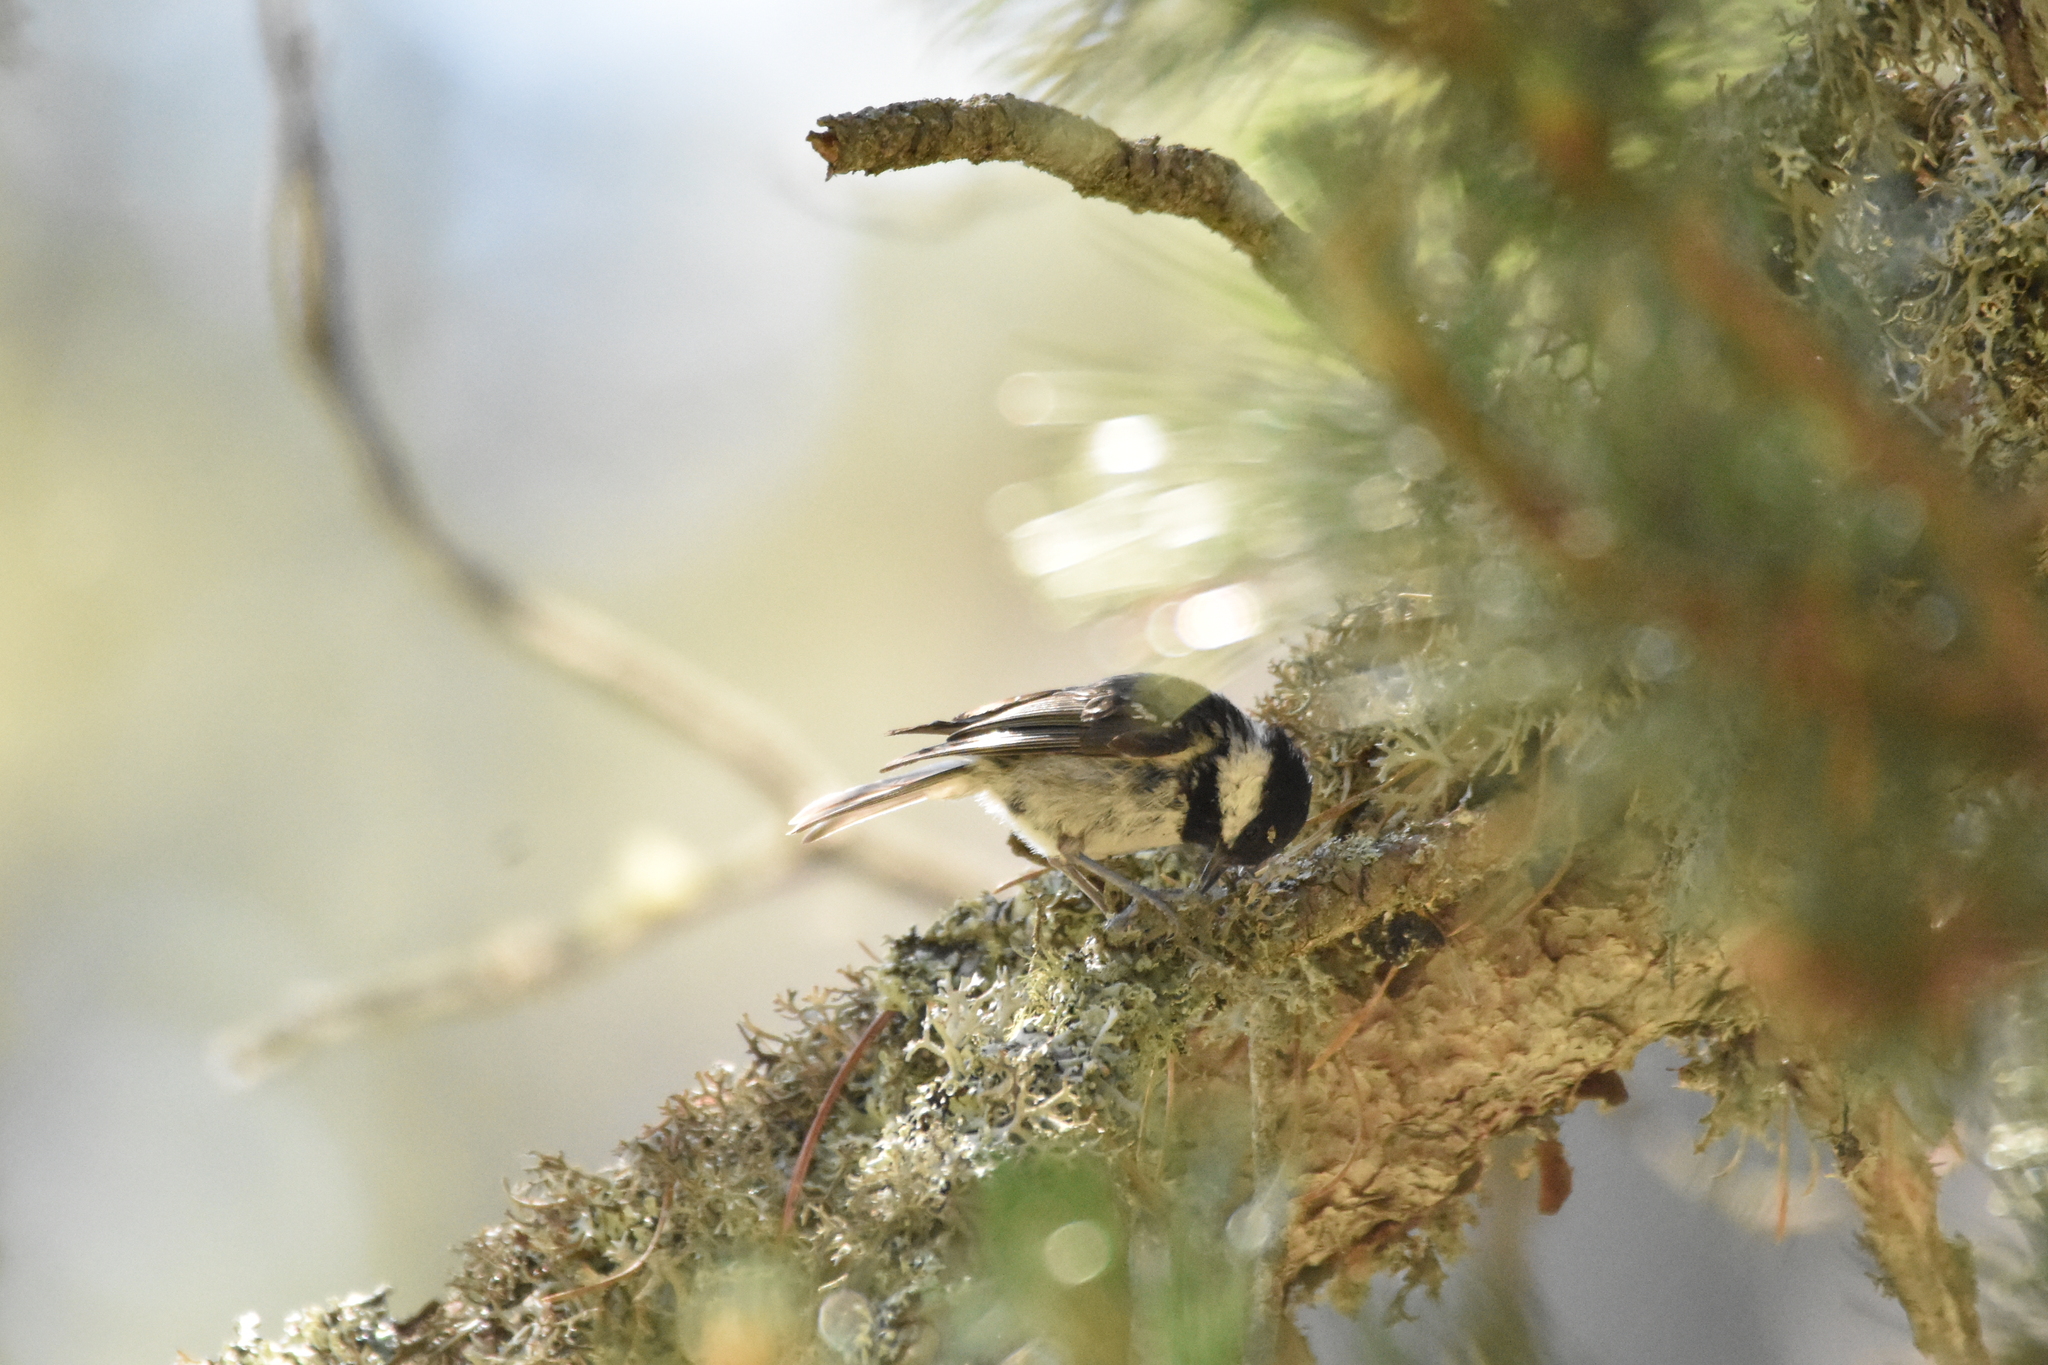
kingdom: Animalia
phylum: Chordata
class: Aves
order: Passeriformes
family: Paridae
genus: Periparus
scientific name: Periparus ater
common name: Coal tit
